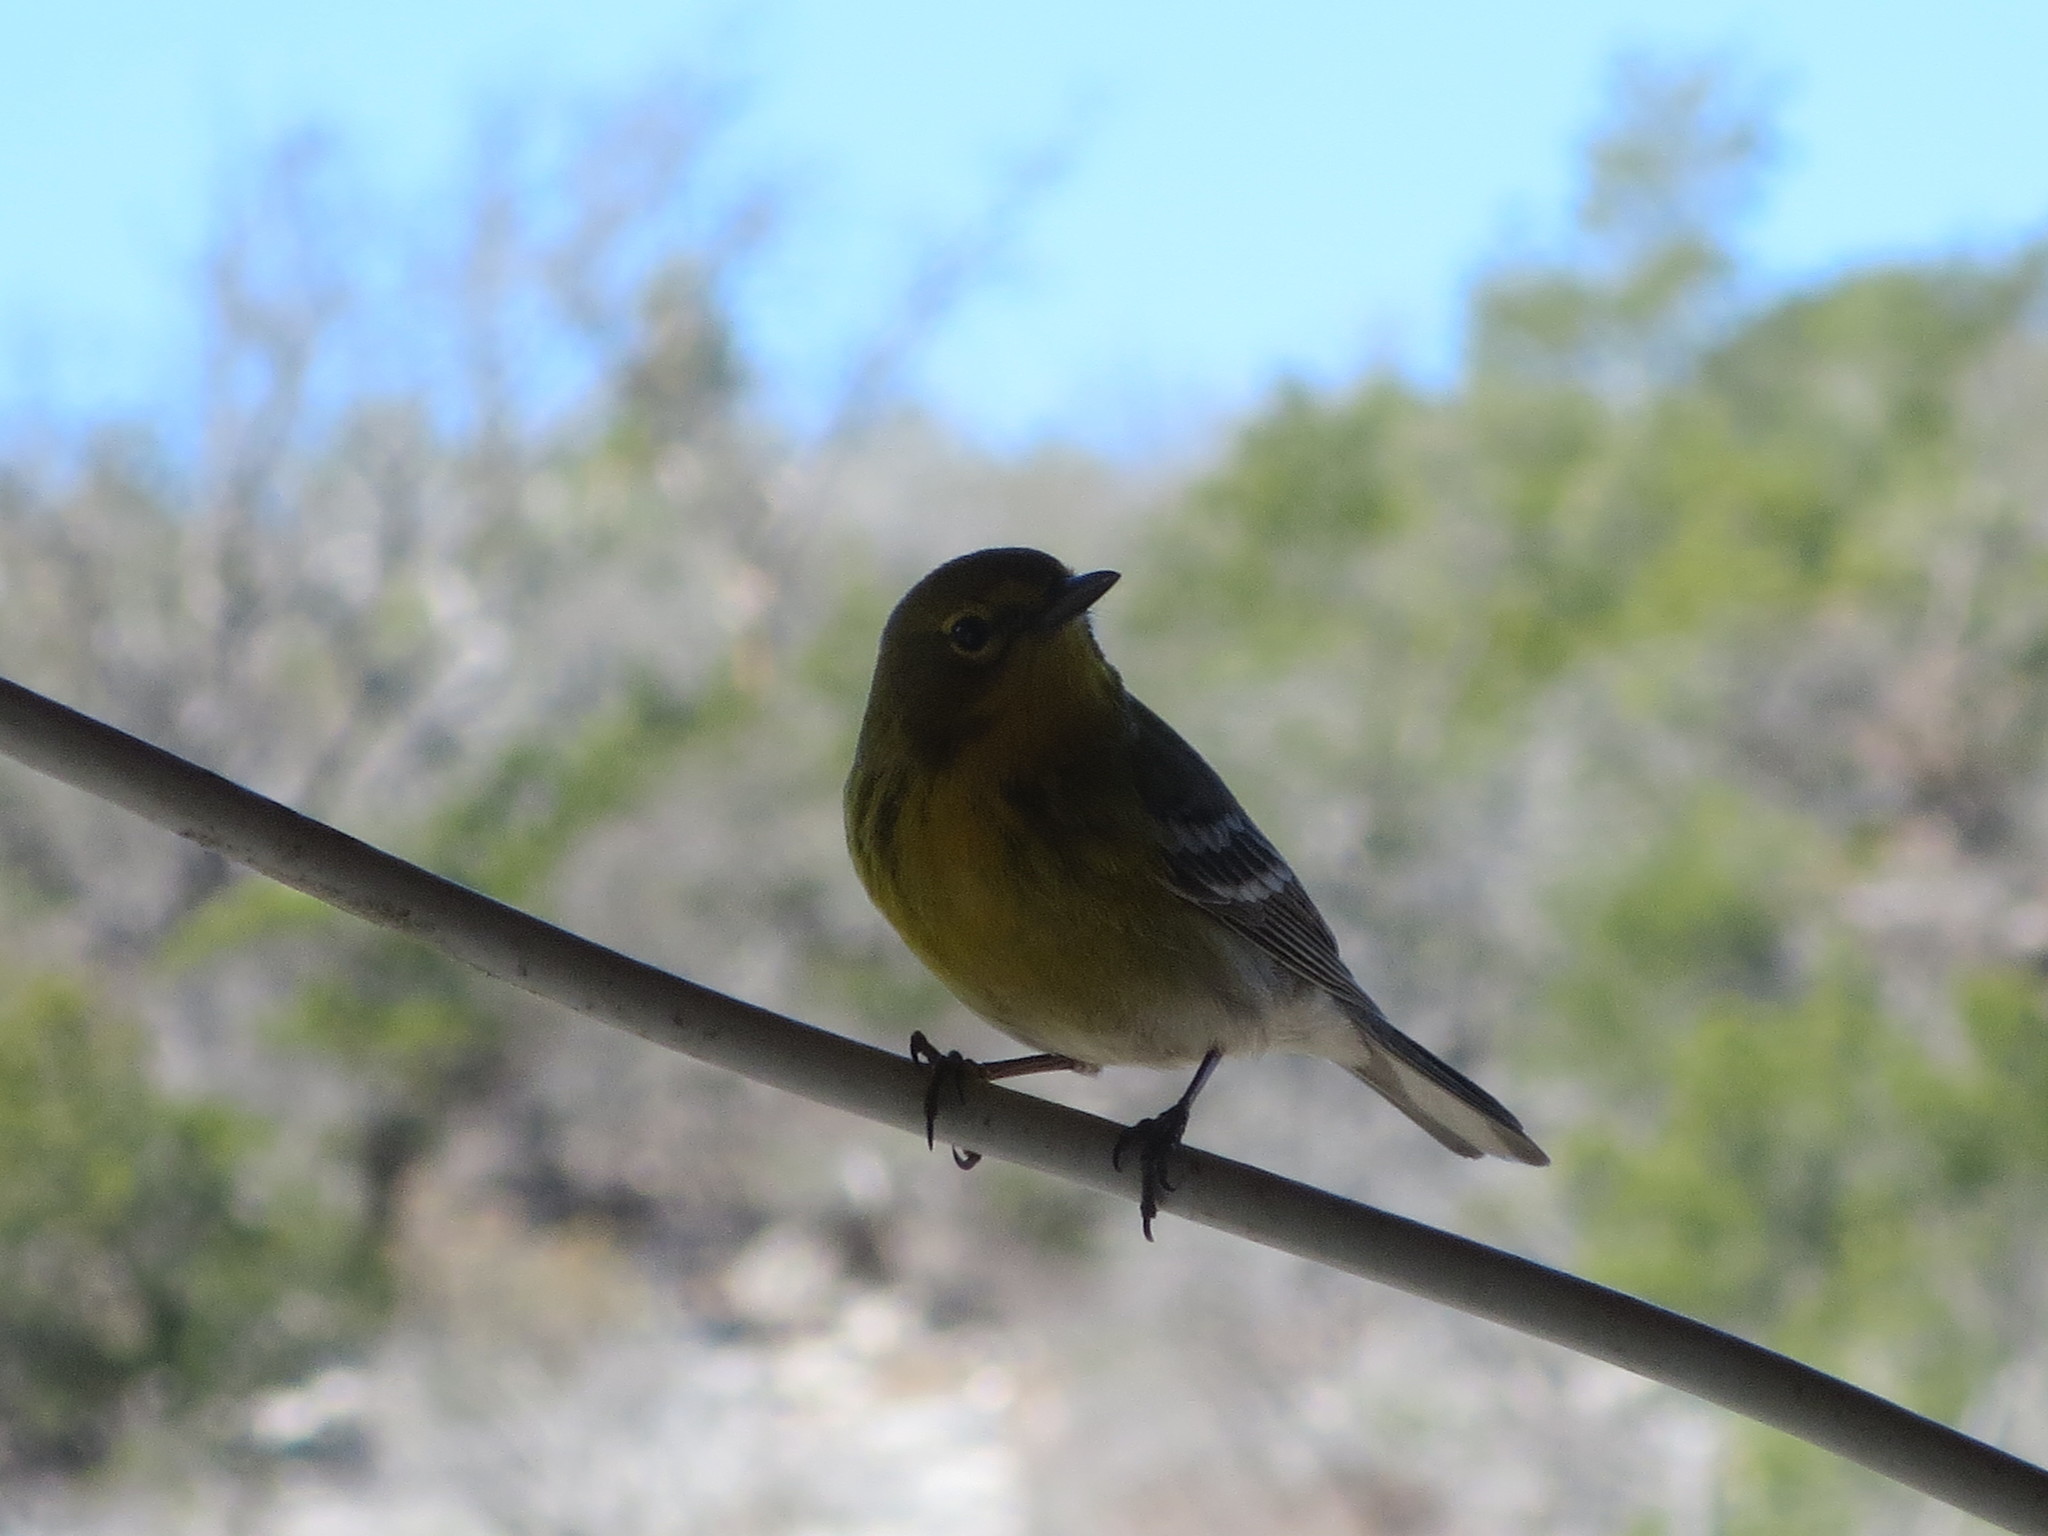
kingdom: Animalia
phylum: Chordata
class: Aves
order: Passeriformes
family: Parulidae
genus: Setophaga
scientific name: Setophaga pinus
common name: Pine warbler
